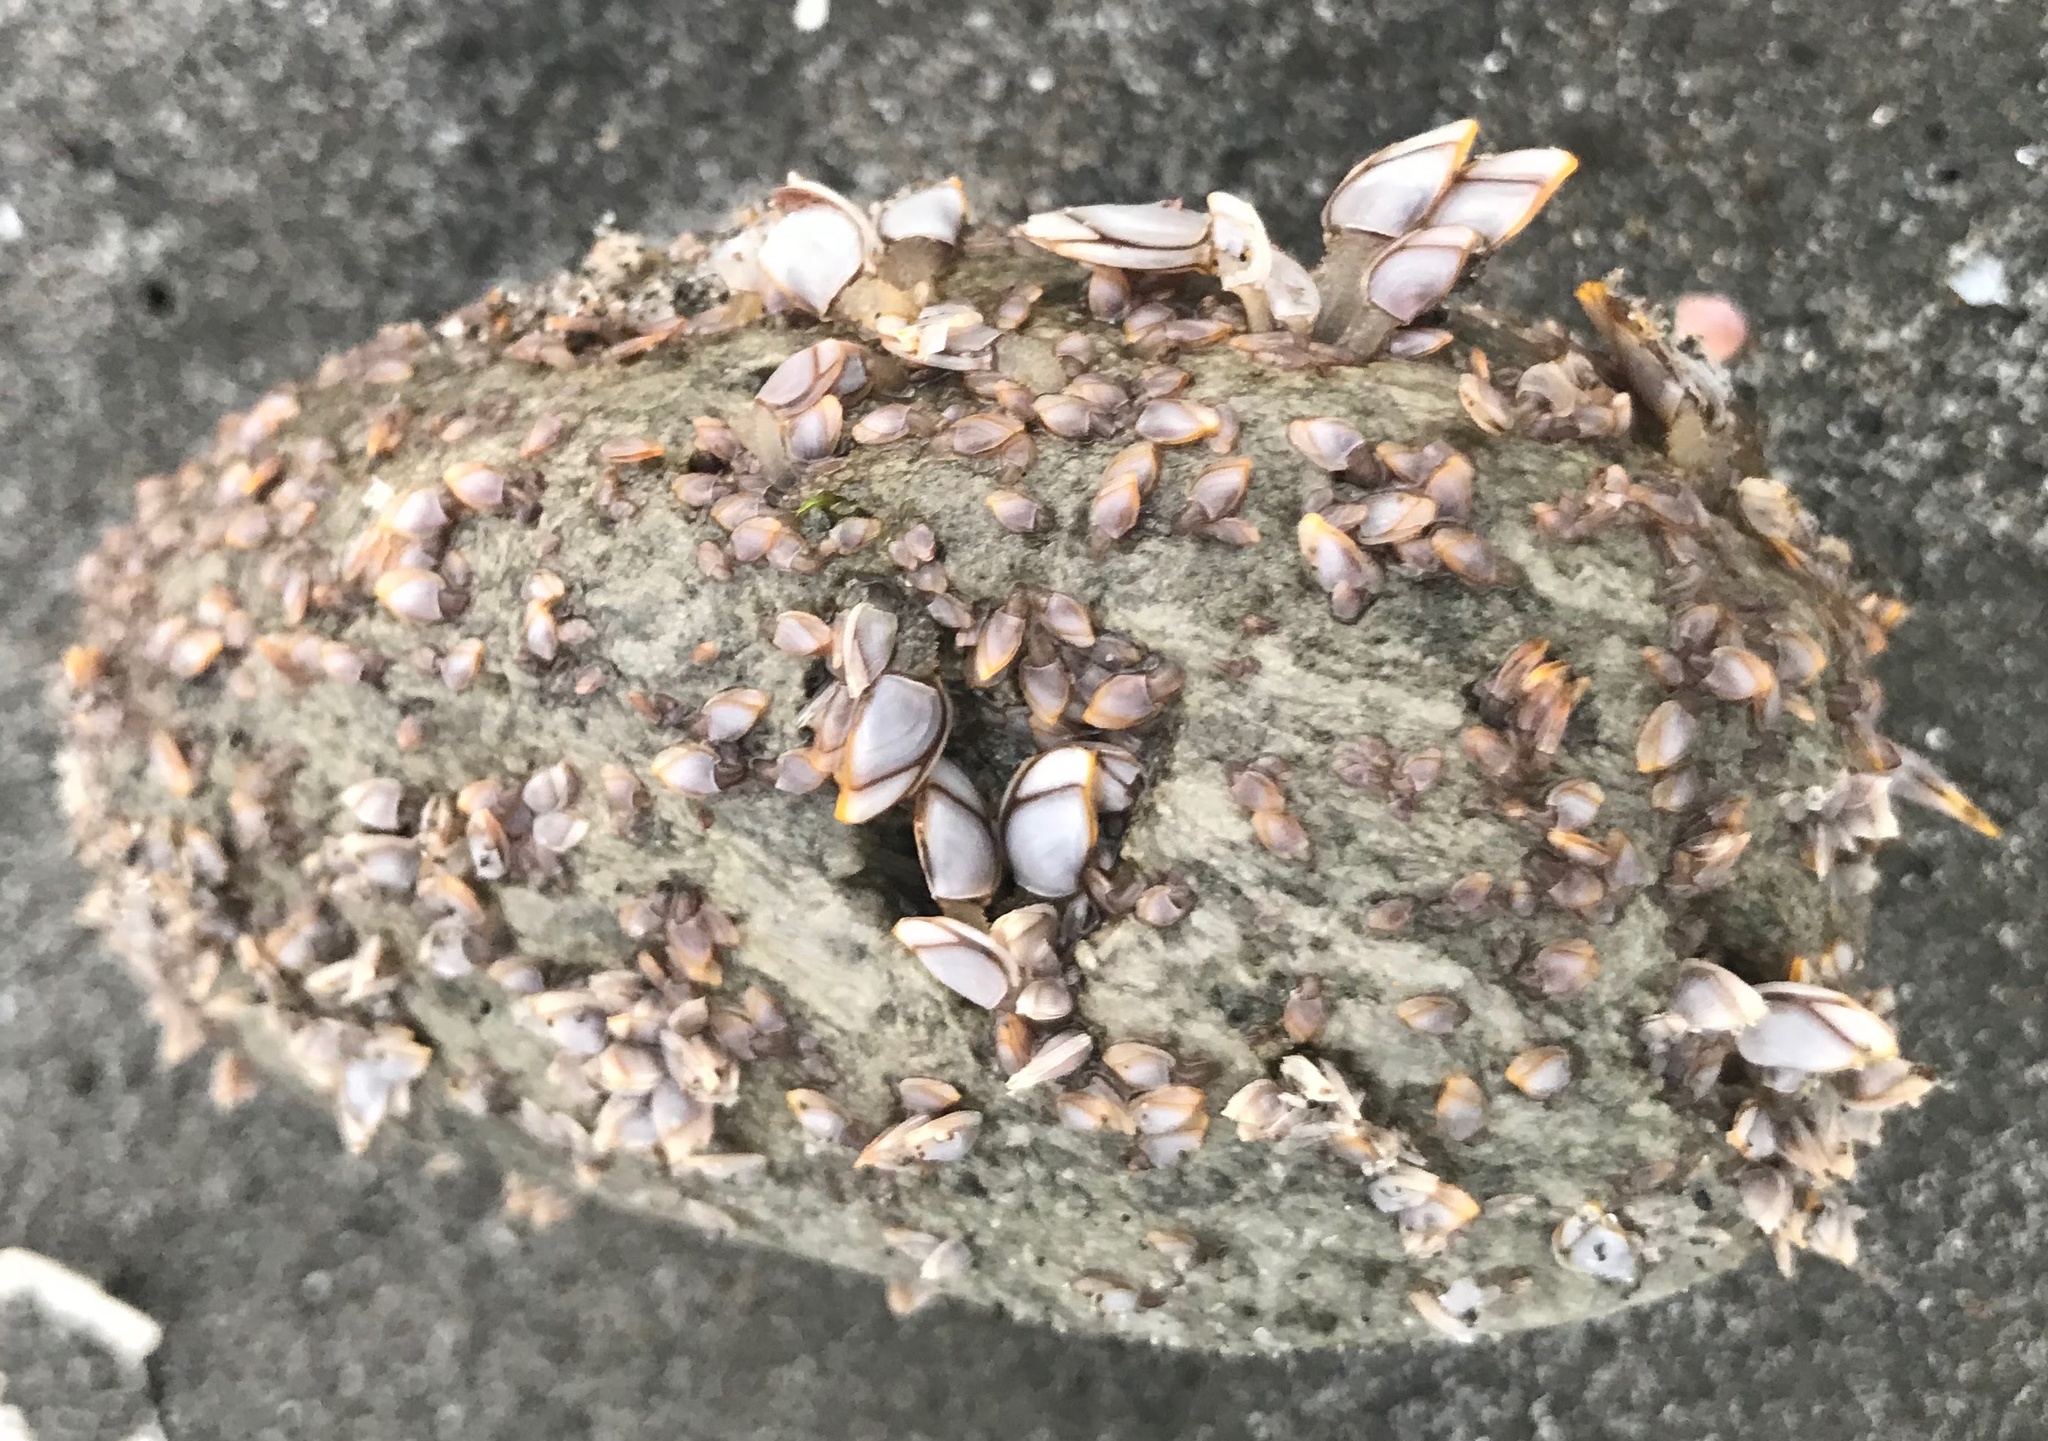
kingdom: Animalia
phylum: Arthropoda
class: Maxillopoda
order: Pedunculata
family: Lepadidae
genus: Lepas
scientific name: Lepas anatifera
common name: Common goose barnacle
